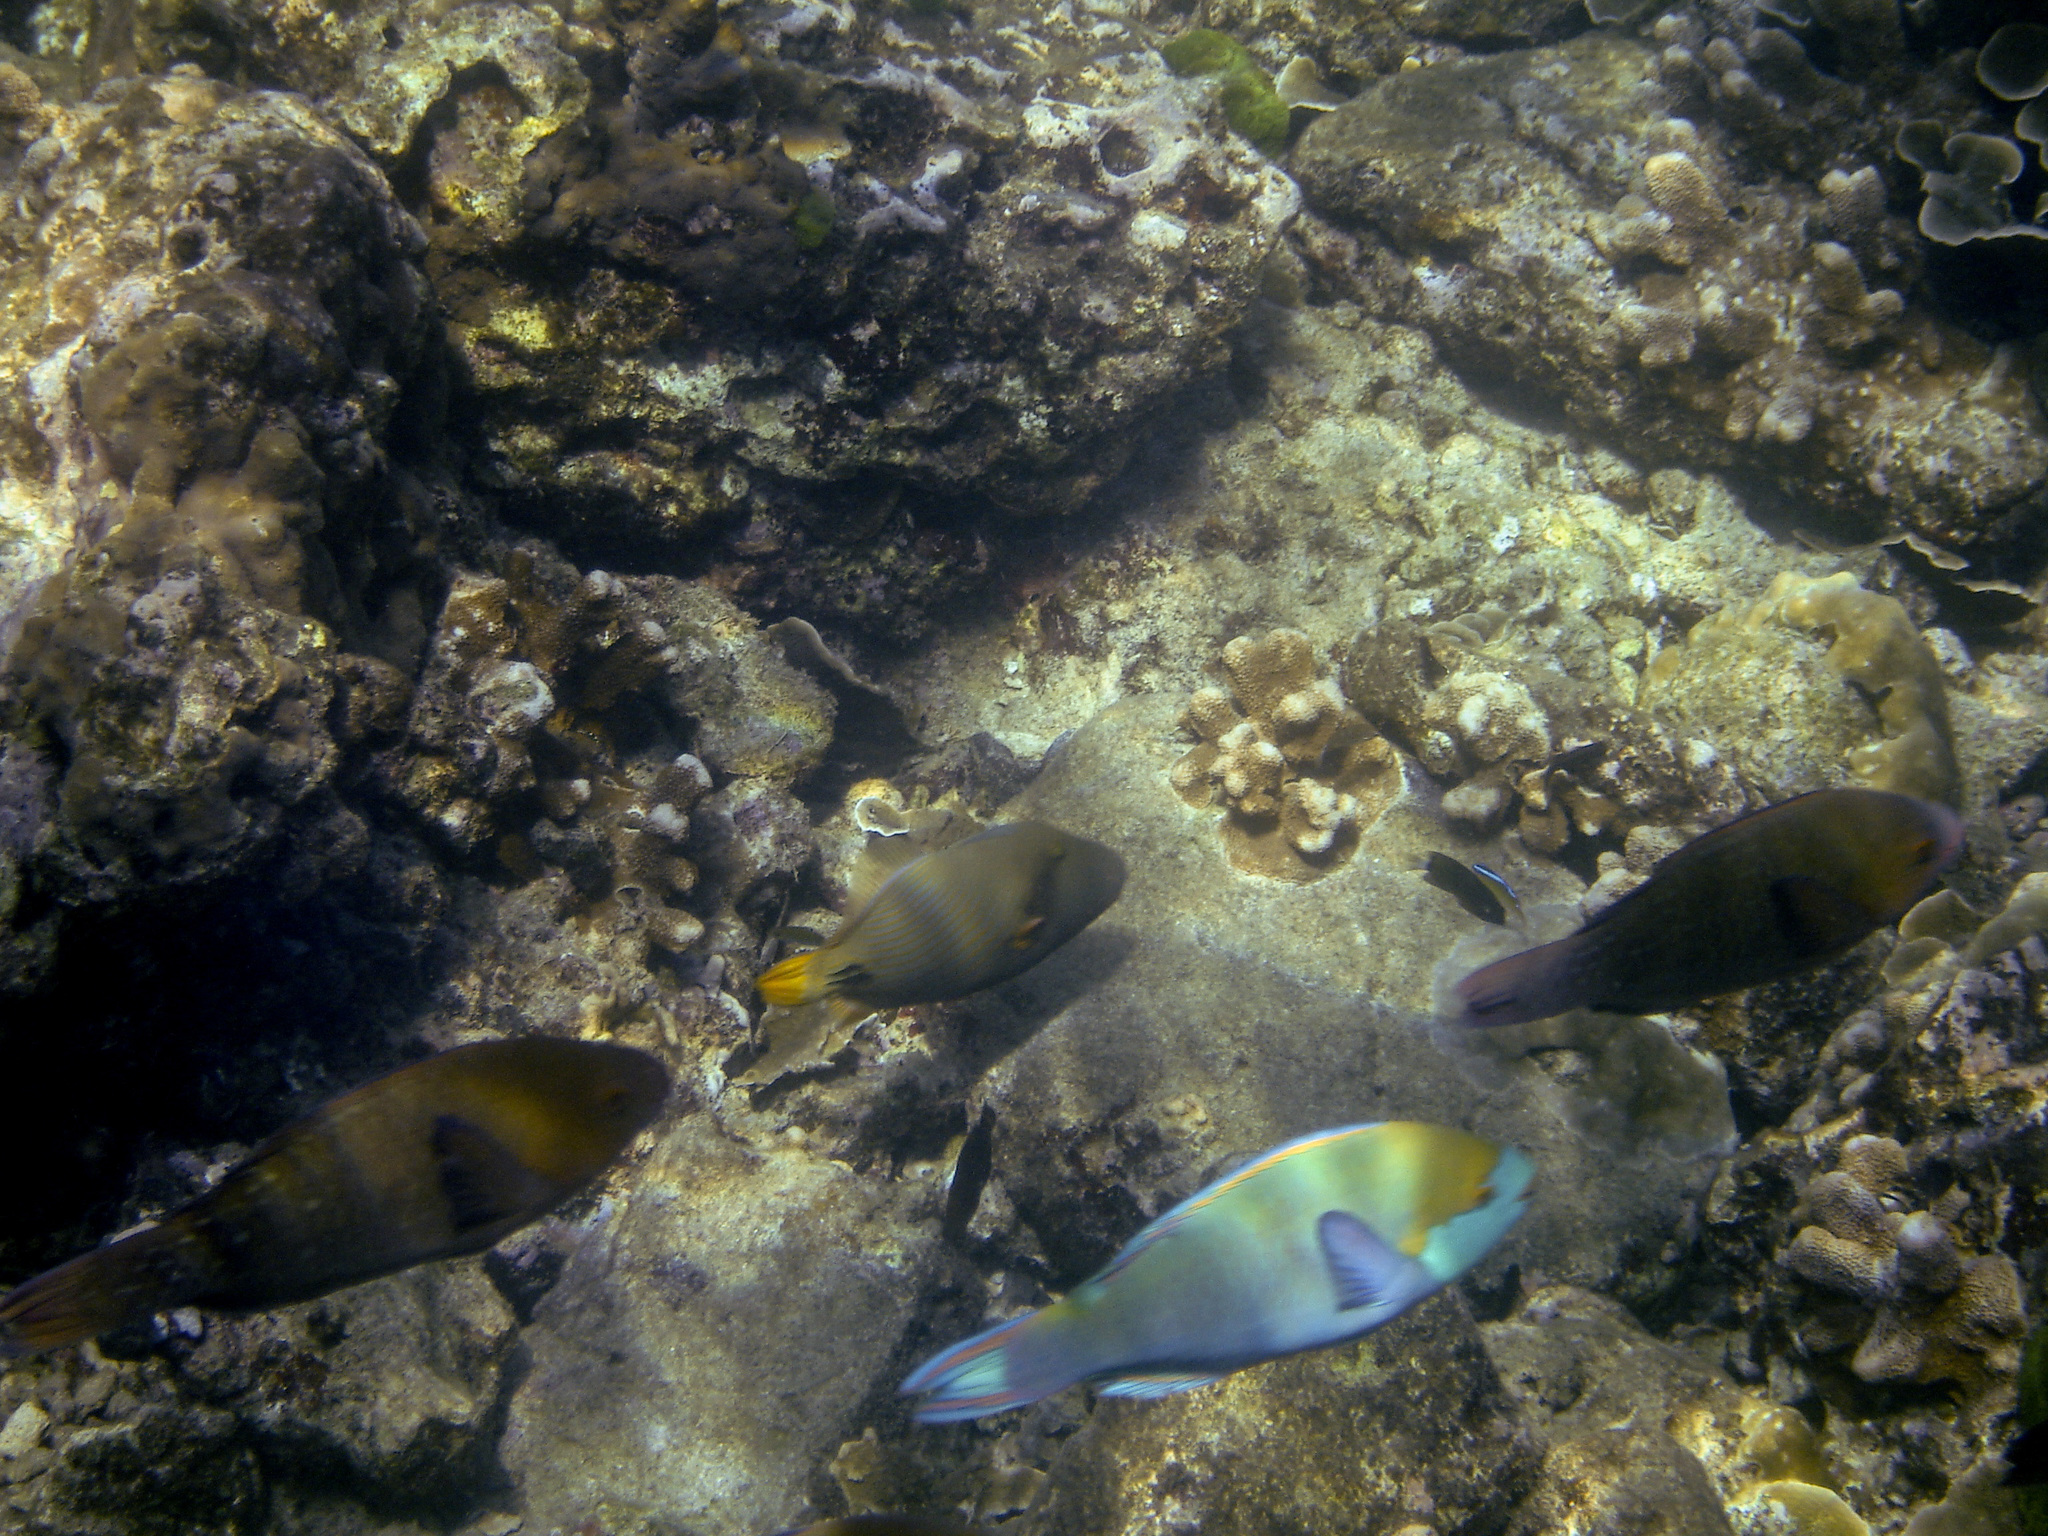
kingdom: Animalia
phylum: Chordata
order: Tetraodontiformes
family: Balistidae
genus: Balistapus
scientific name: Balistapus undulatus
